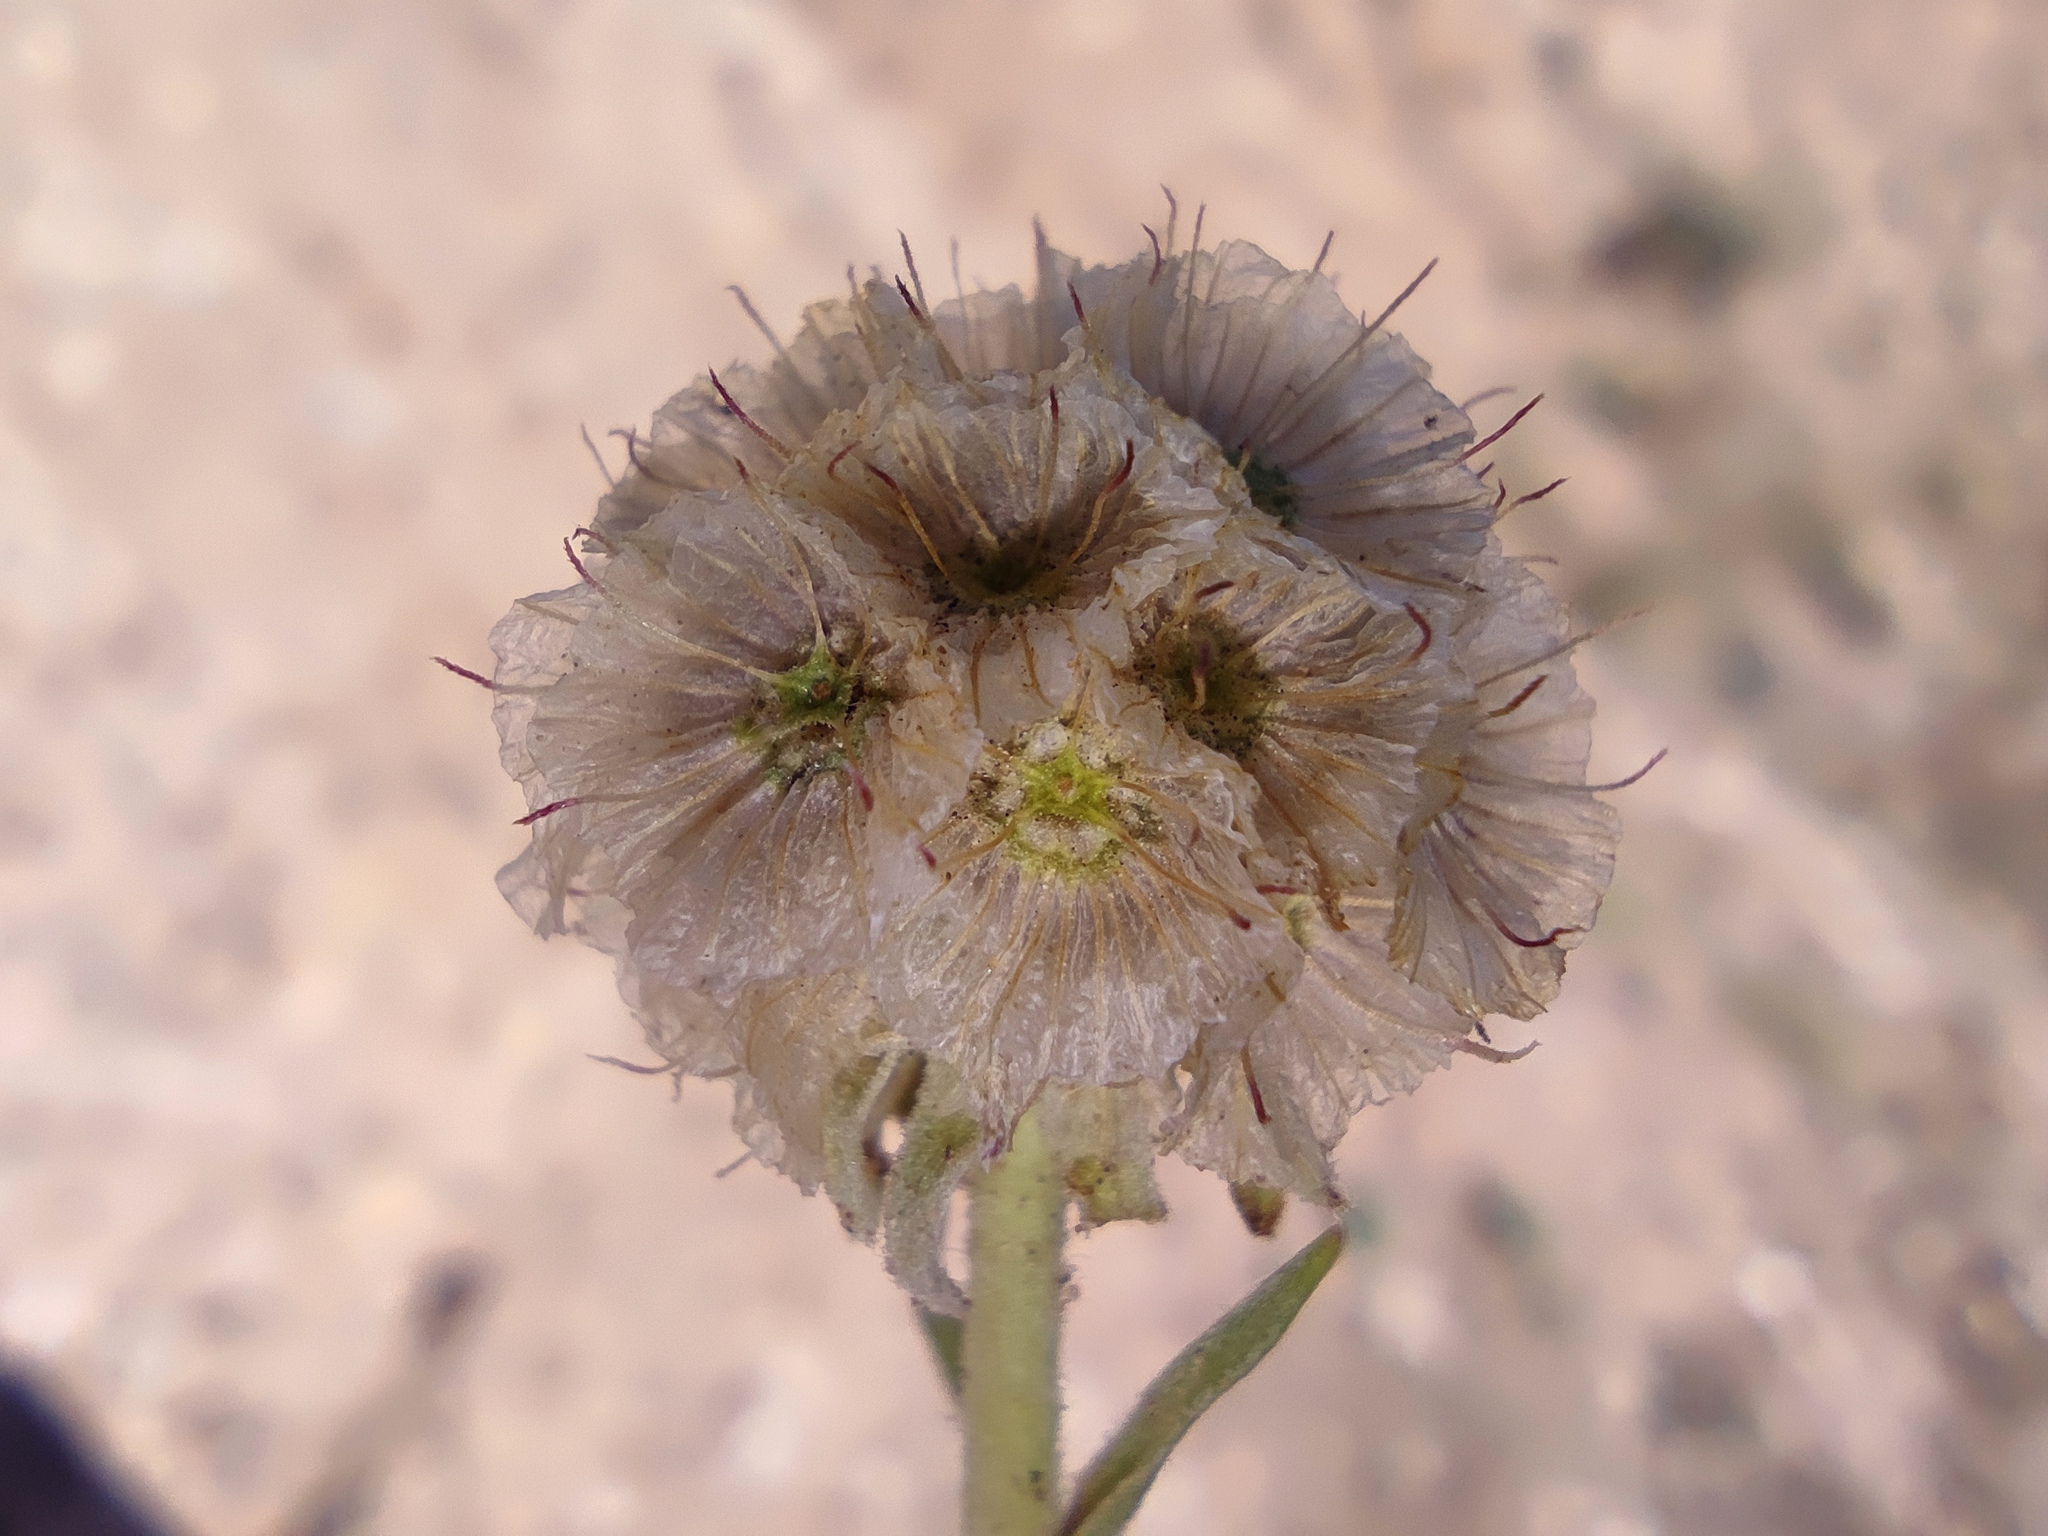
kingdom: Plantae
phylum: Tracheophyta
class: Magnoliopsida
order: Dipsacales
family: Caprifoliaceae
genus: Lomelosia
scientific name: Lomelosia isetensis
